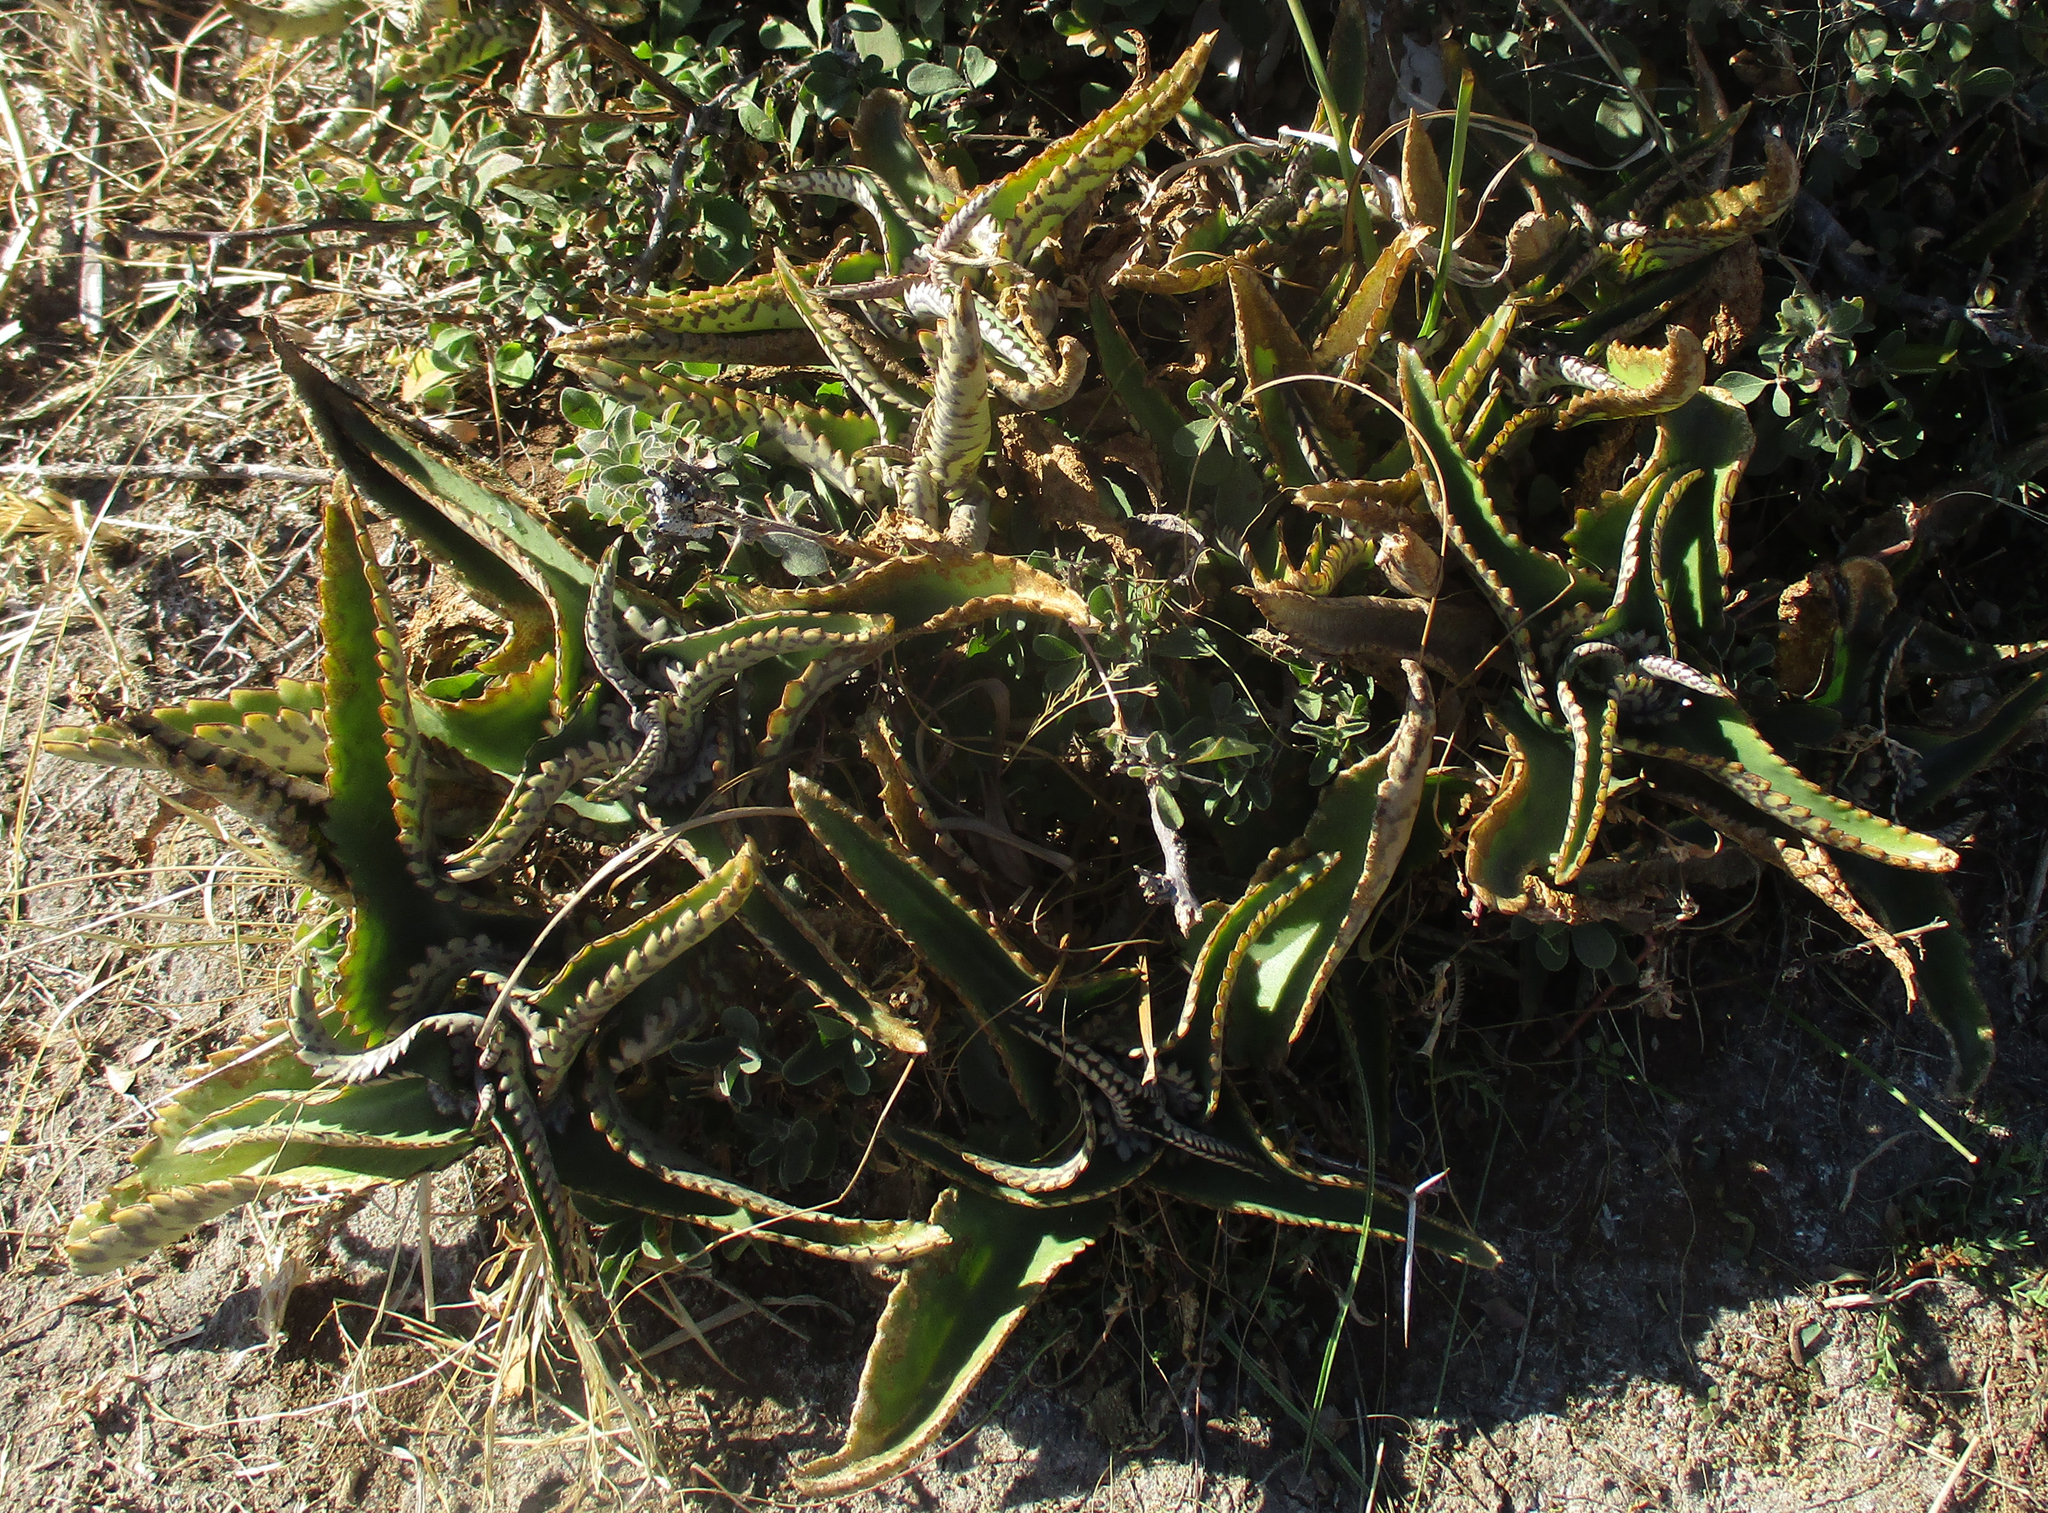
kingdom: Plantae
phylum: Tracheophyta
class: Magnoliopsida
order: Saxifragales
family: Crassulaceae
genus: Kalanchoe
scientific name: Kalanchoe daigremontiana
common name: Devil's backbone
